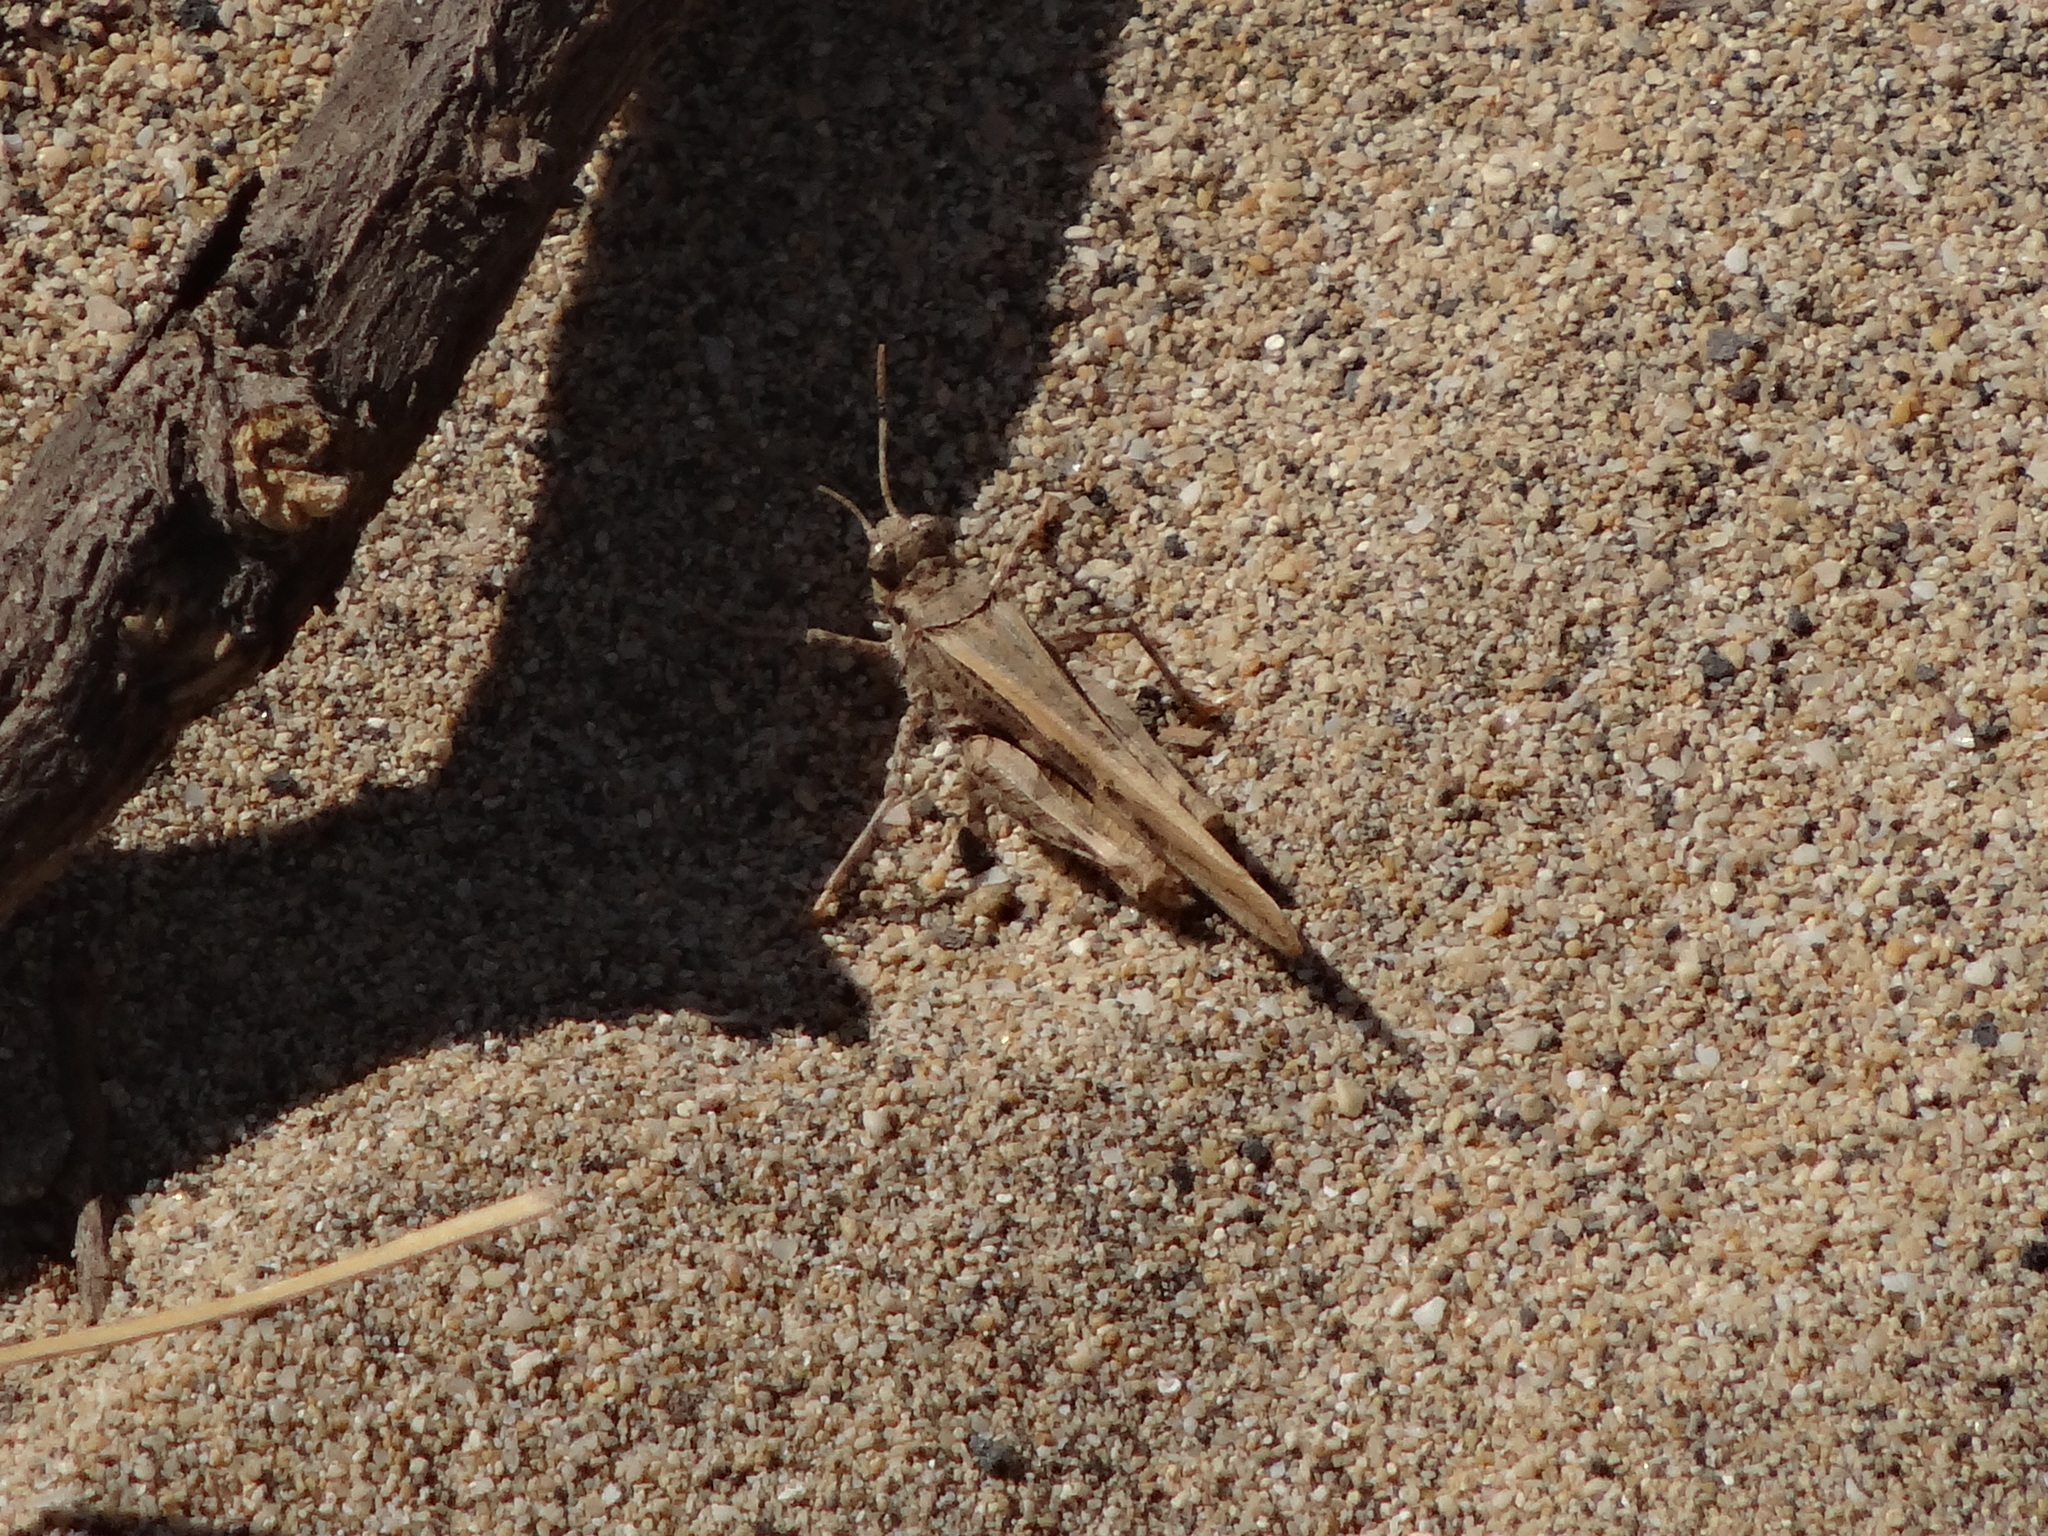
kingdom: Animalia
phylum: Arthropoda
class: Insecta
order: Orthoptera
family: Acrididae
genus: Acrotylus
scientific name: Acrotylus insubricus
